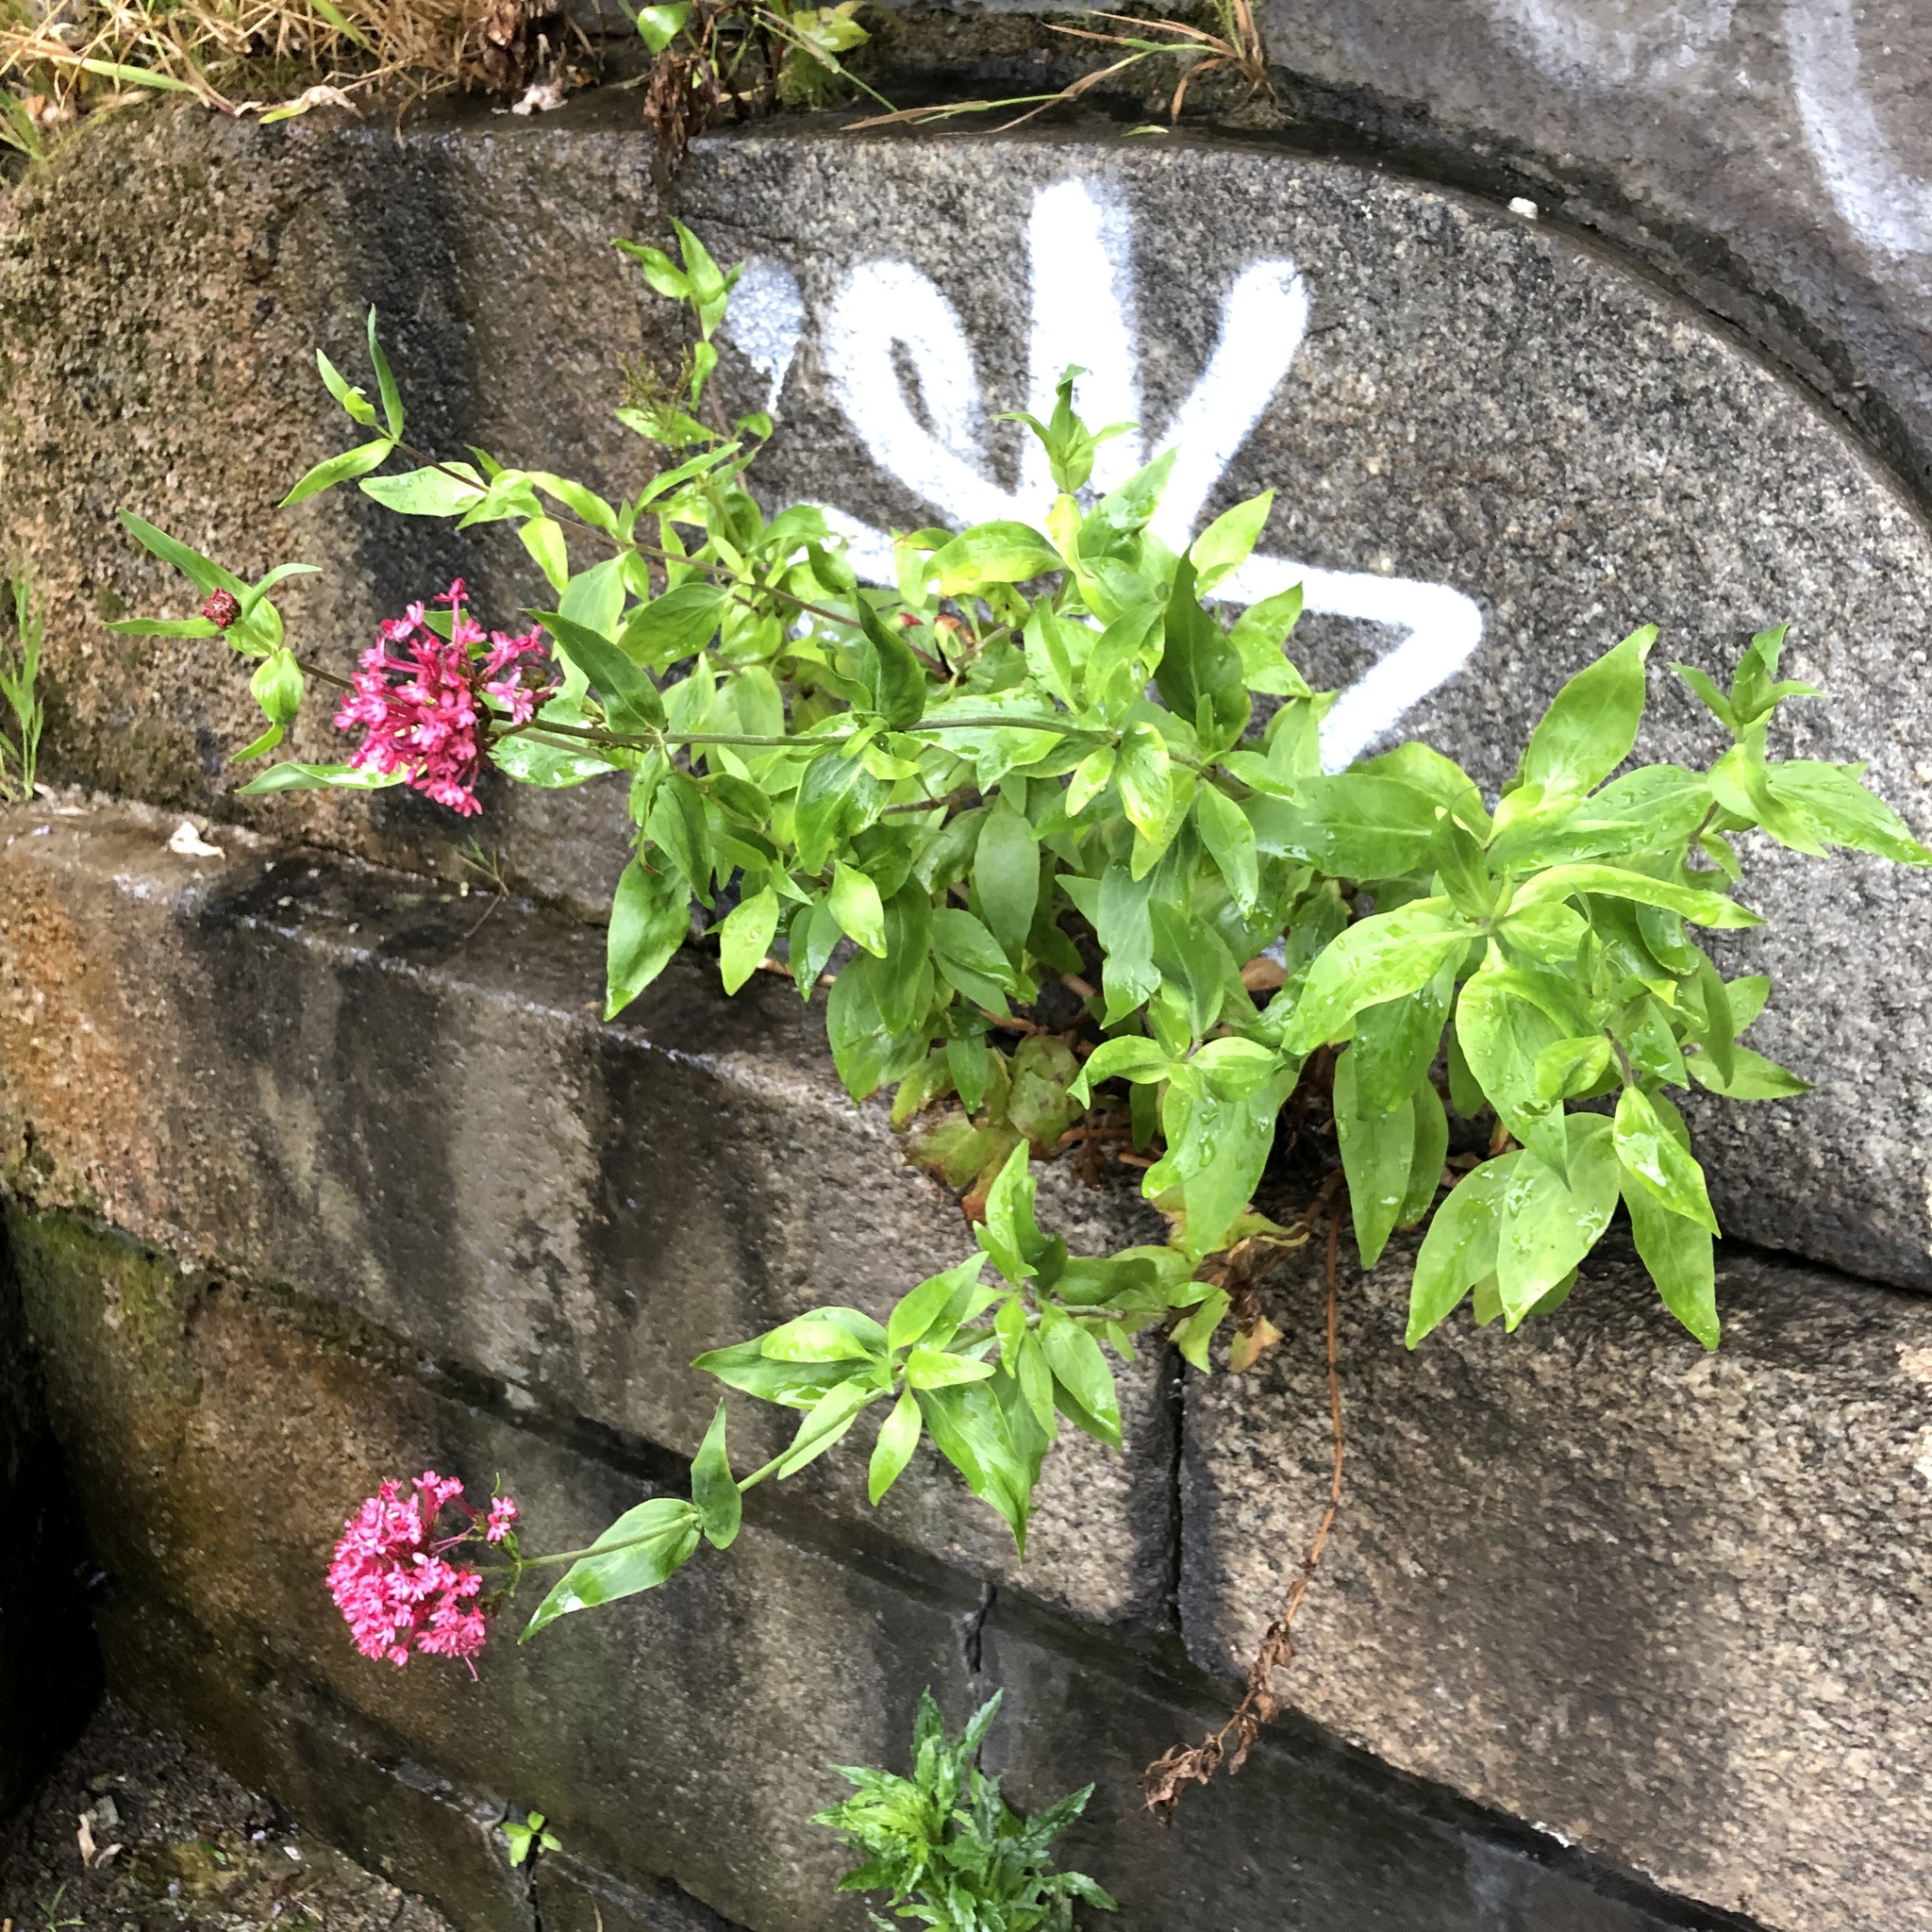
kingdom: Plantae
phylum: Tracheophyta
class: Magnoliopsida
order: Dipsacales
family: Caprifoliaceae
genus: Centranthus
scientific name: Centranthus ruber
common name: Red valerian
